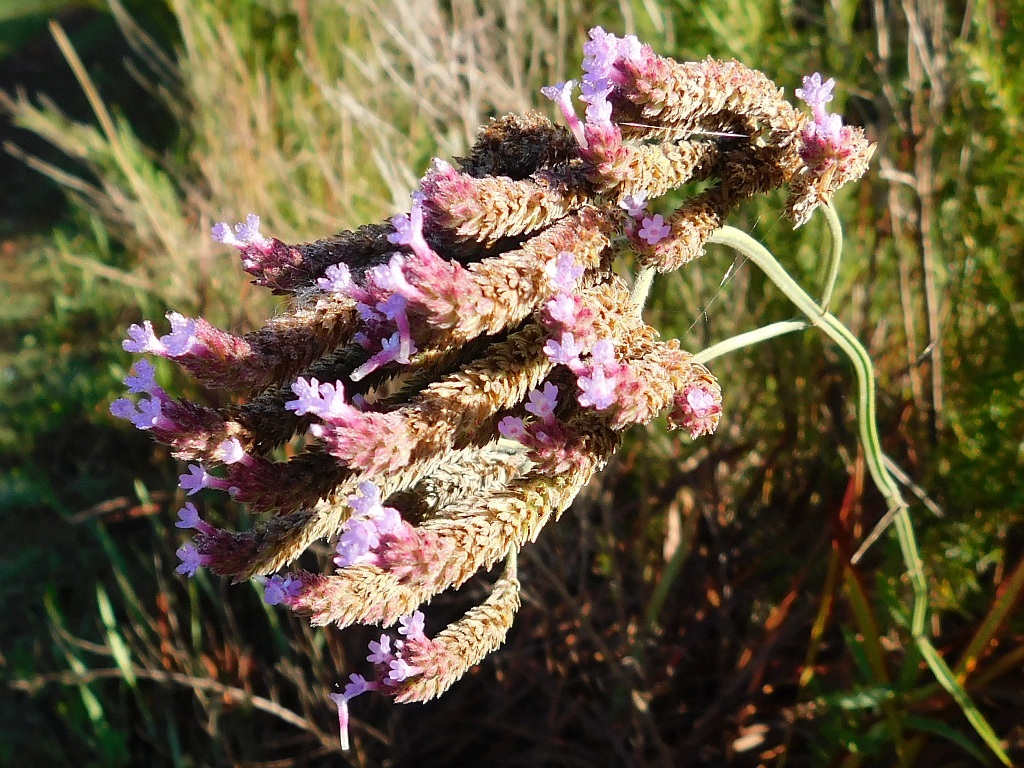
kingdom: Plantae
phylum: Tracheophyta
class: Magnoliopsida
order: Lamiales
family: Verbenaceae
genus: Verbena
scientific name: Verbena bonariensis
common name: Purpletop vervain
